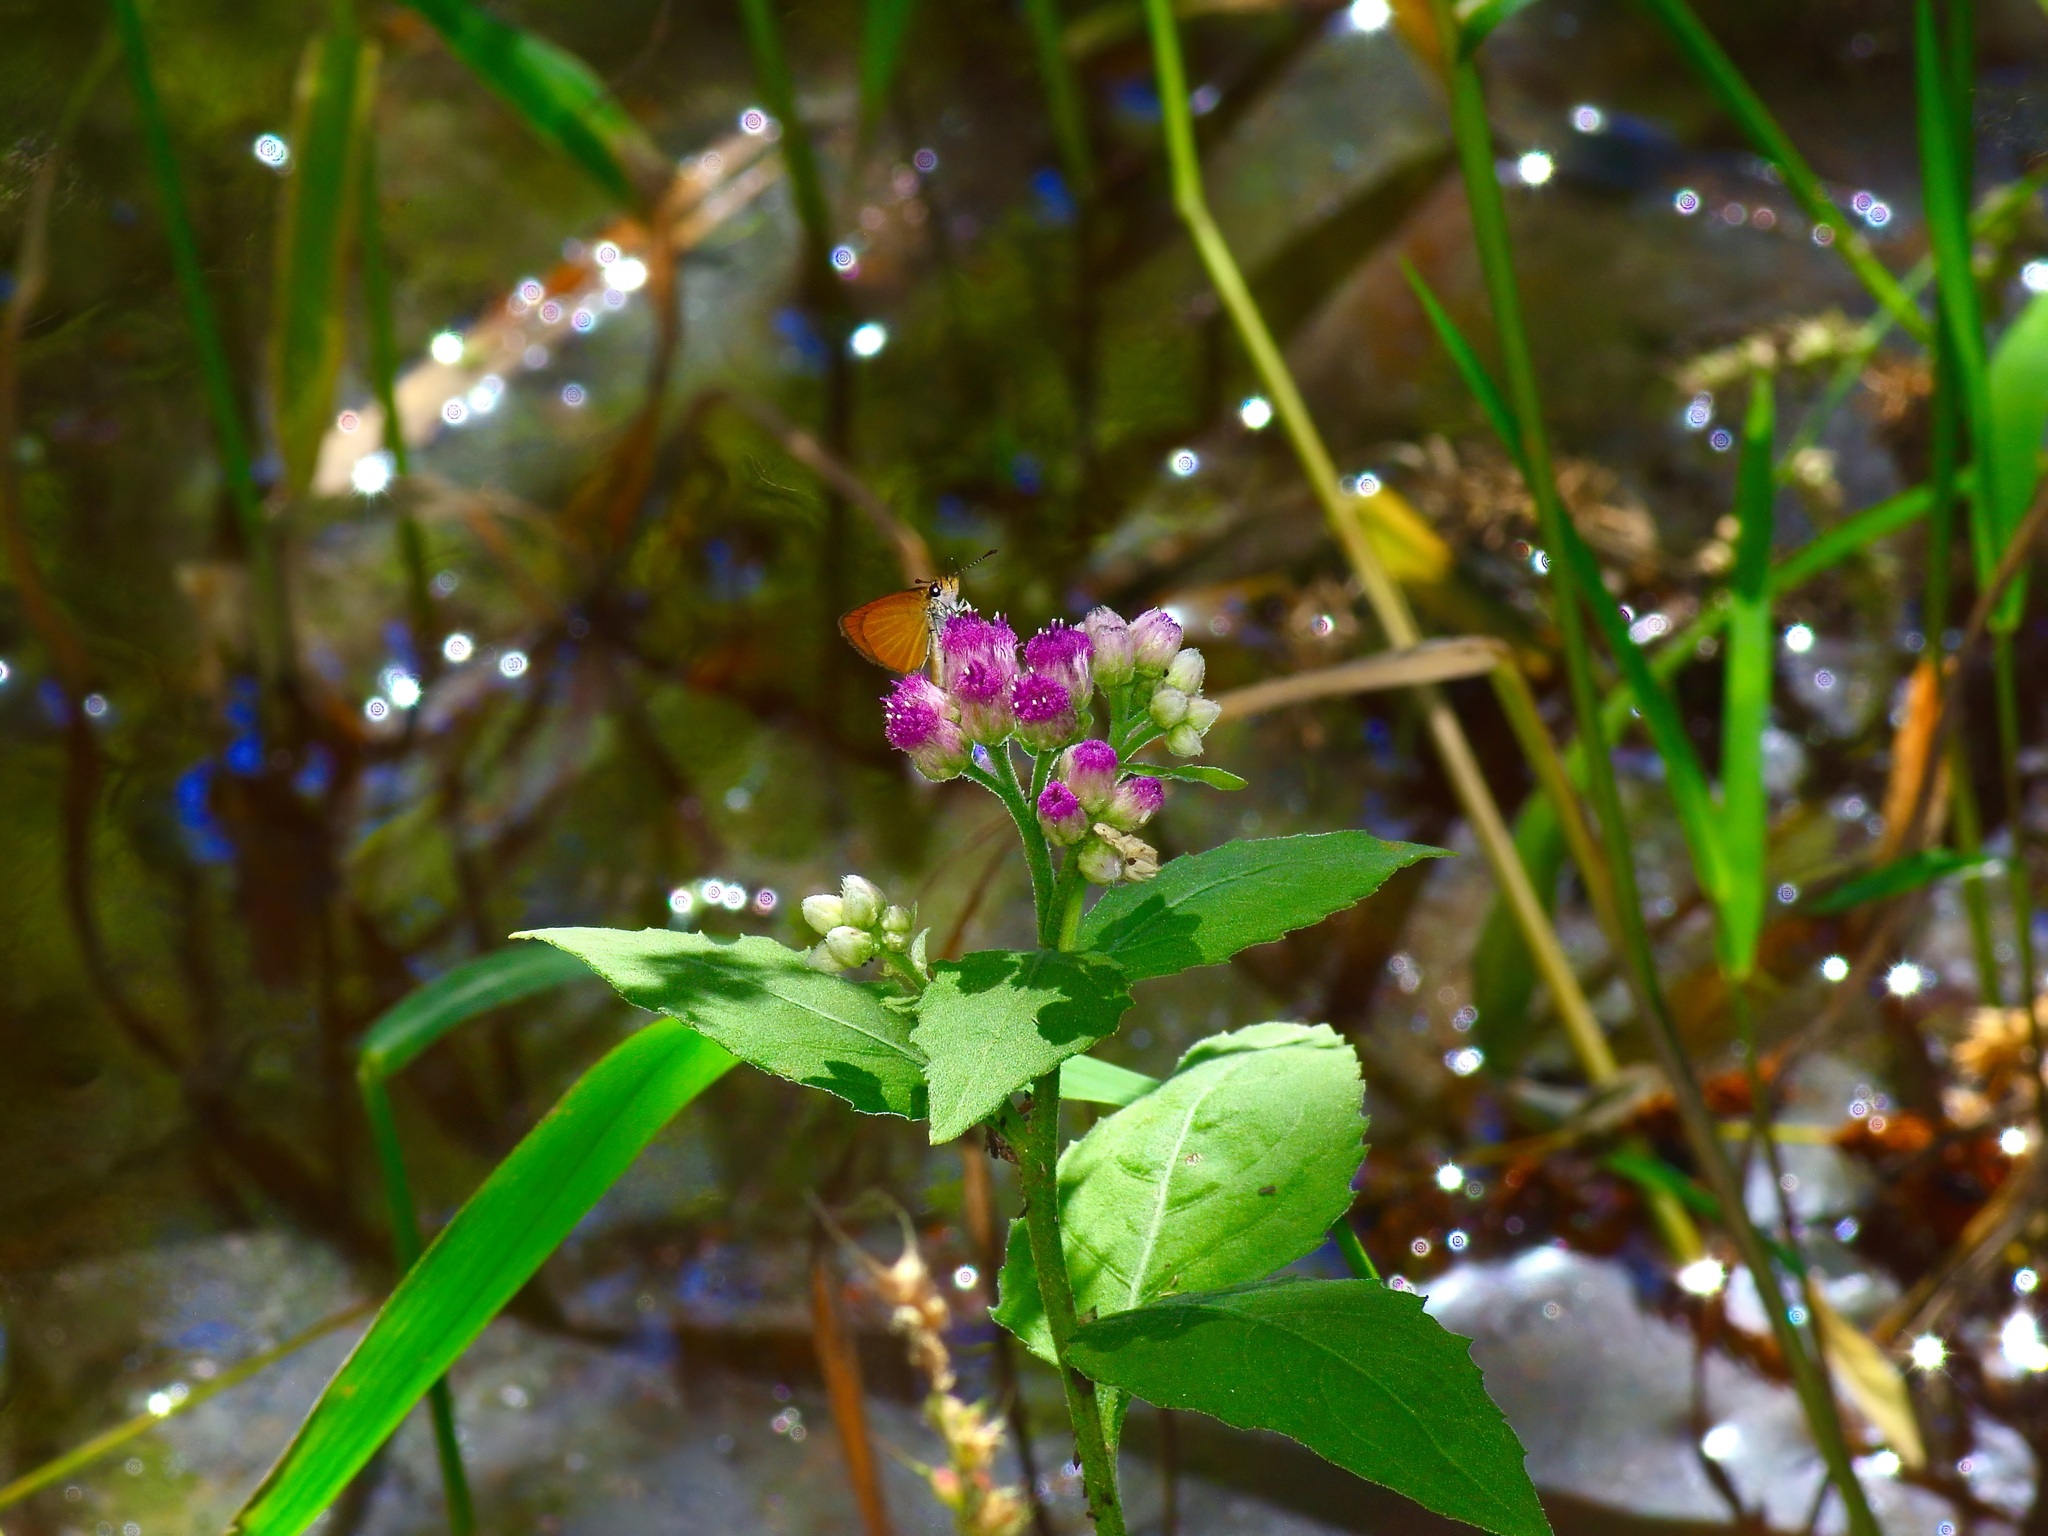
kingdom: Animalia
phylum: Arthropoda
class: Insecta
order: Lepidoptera
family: Hesperiidae
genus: Ancyloxypha
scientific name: Ancyloxypha numitor
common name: Least skipper
